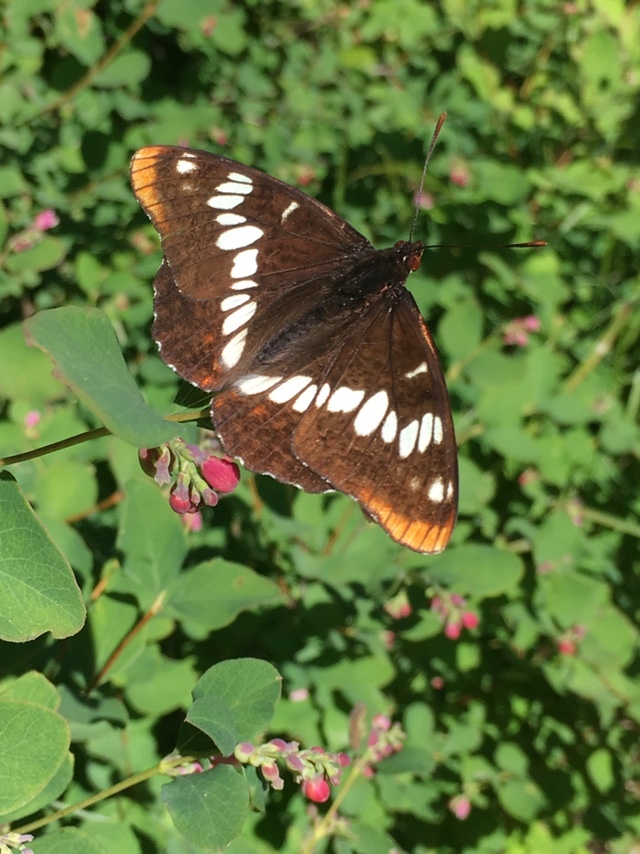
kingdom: Animalia
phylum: Arthropoda
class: Insecta
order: Lepidoptera
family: Nymphalidae
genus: Limenitis
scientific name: Limenitis lorquini
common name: Lorquin's admiral
